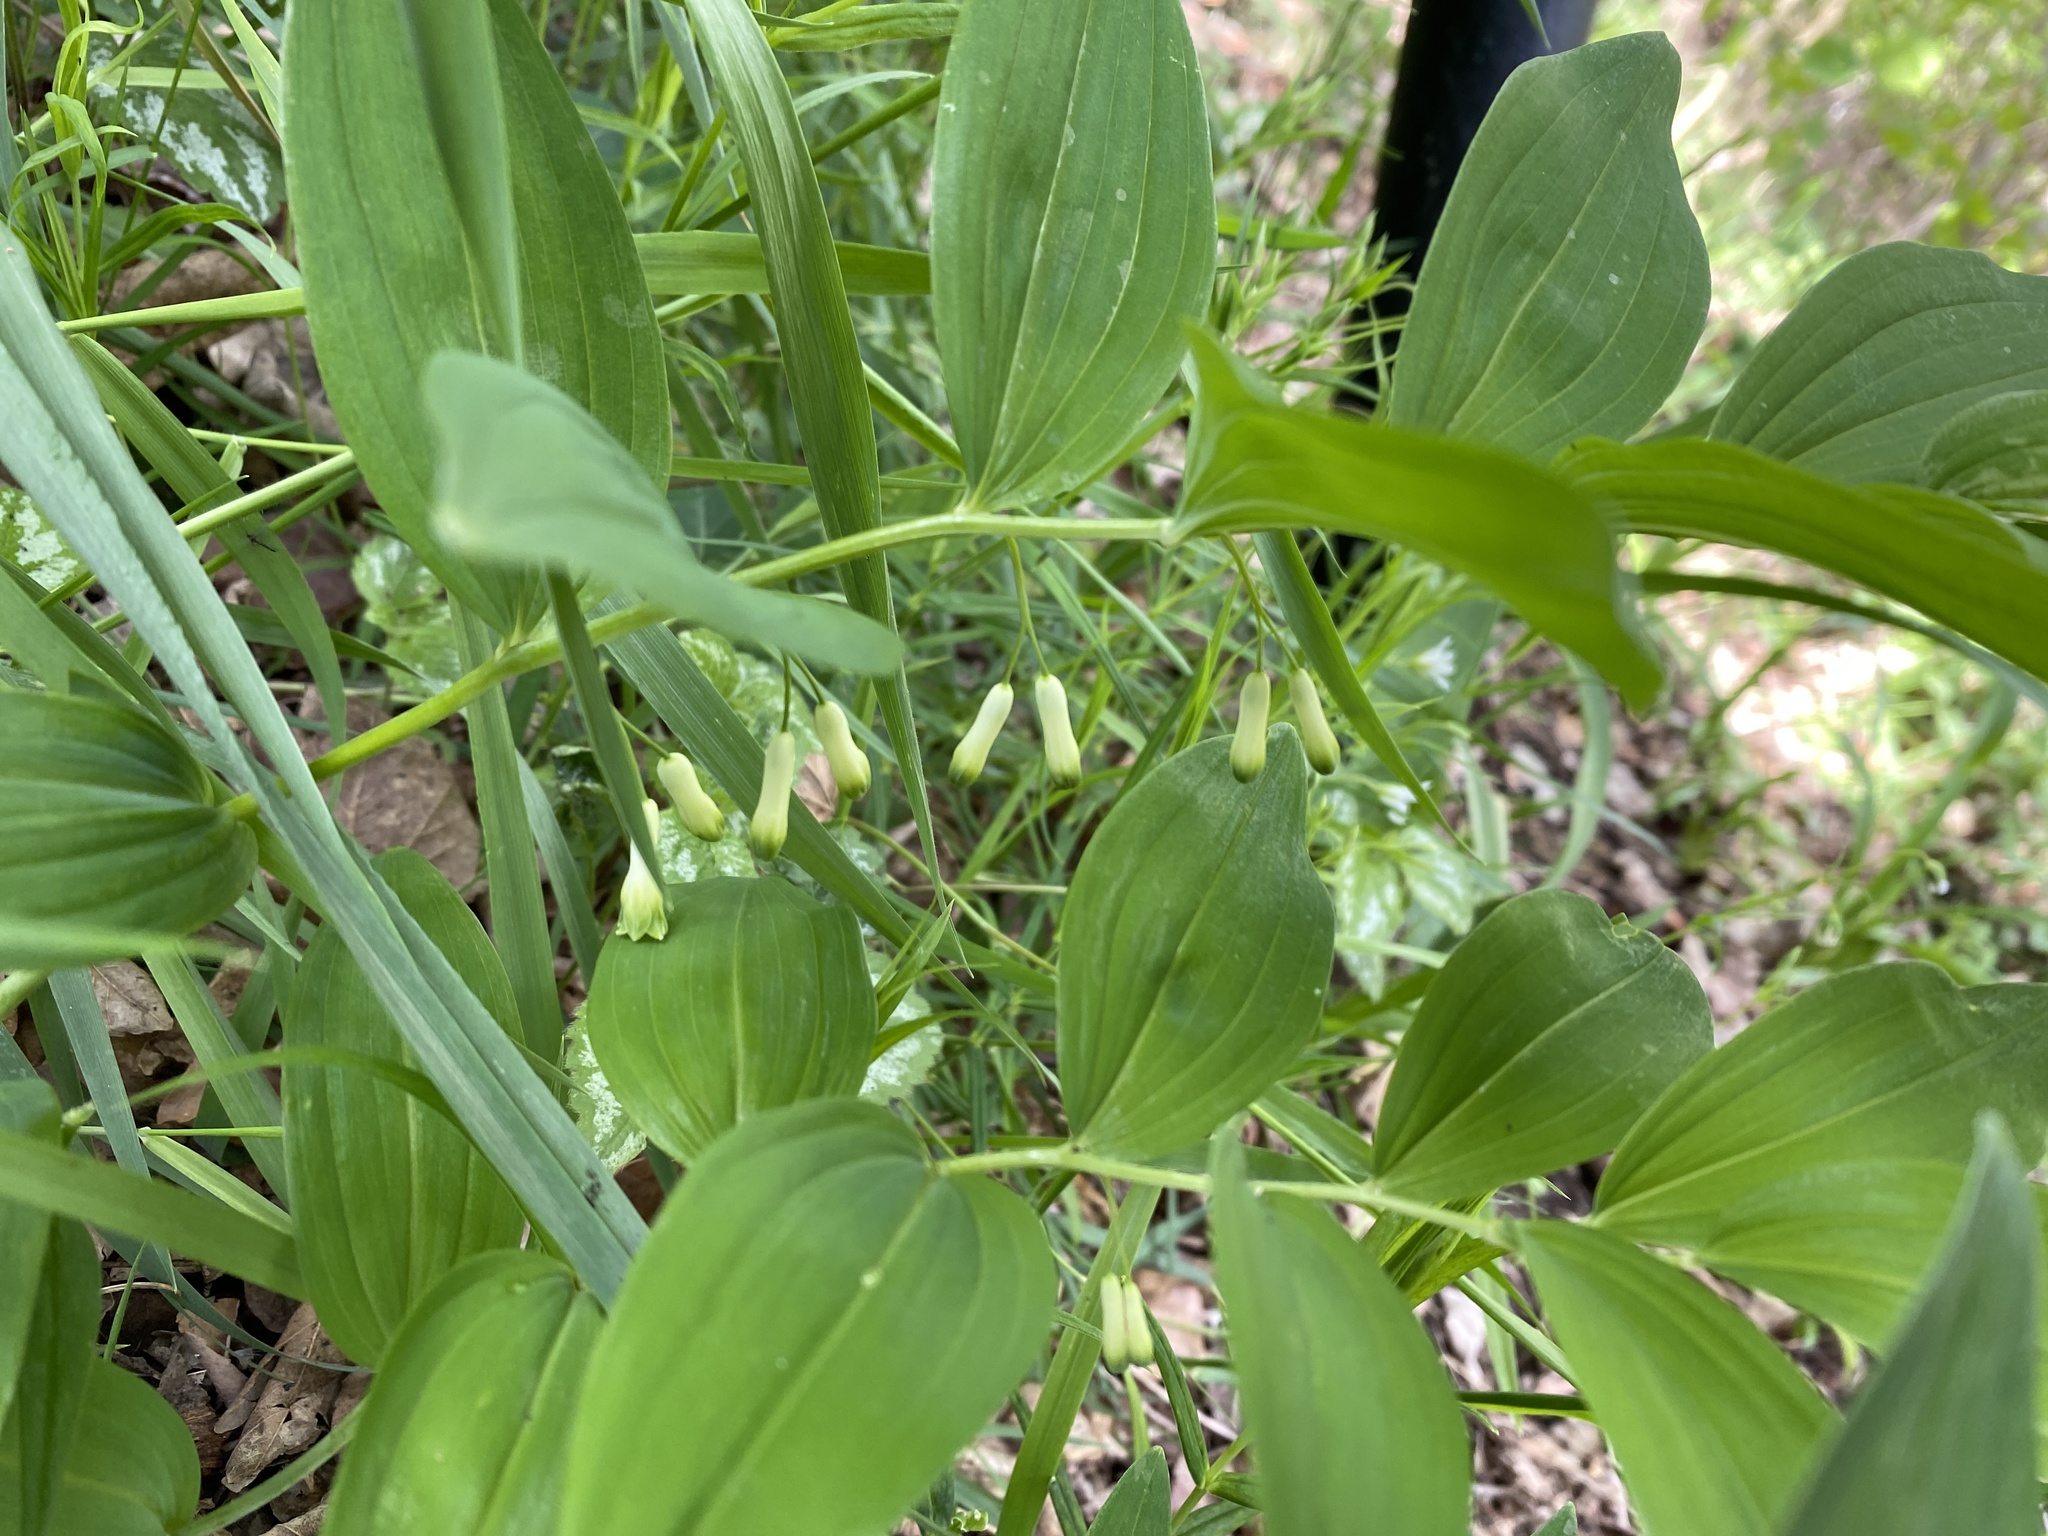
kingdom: Plantae
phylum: Tracheophyta
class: Liliopsida
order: Asparagales
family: Asparagaceae
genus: Polygonatum
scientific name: Polygonatum multiflorum
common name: Solomon's-seal
